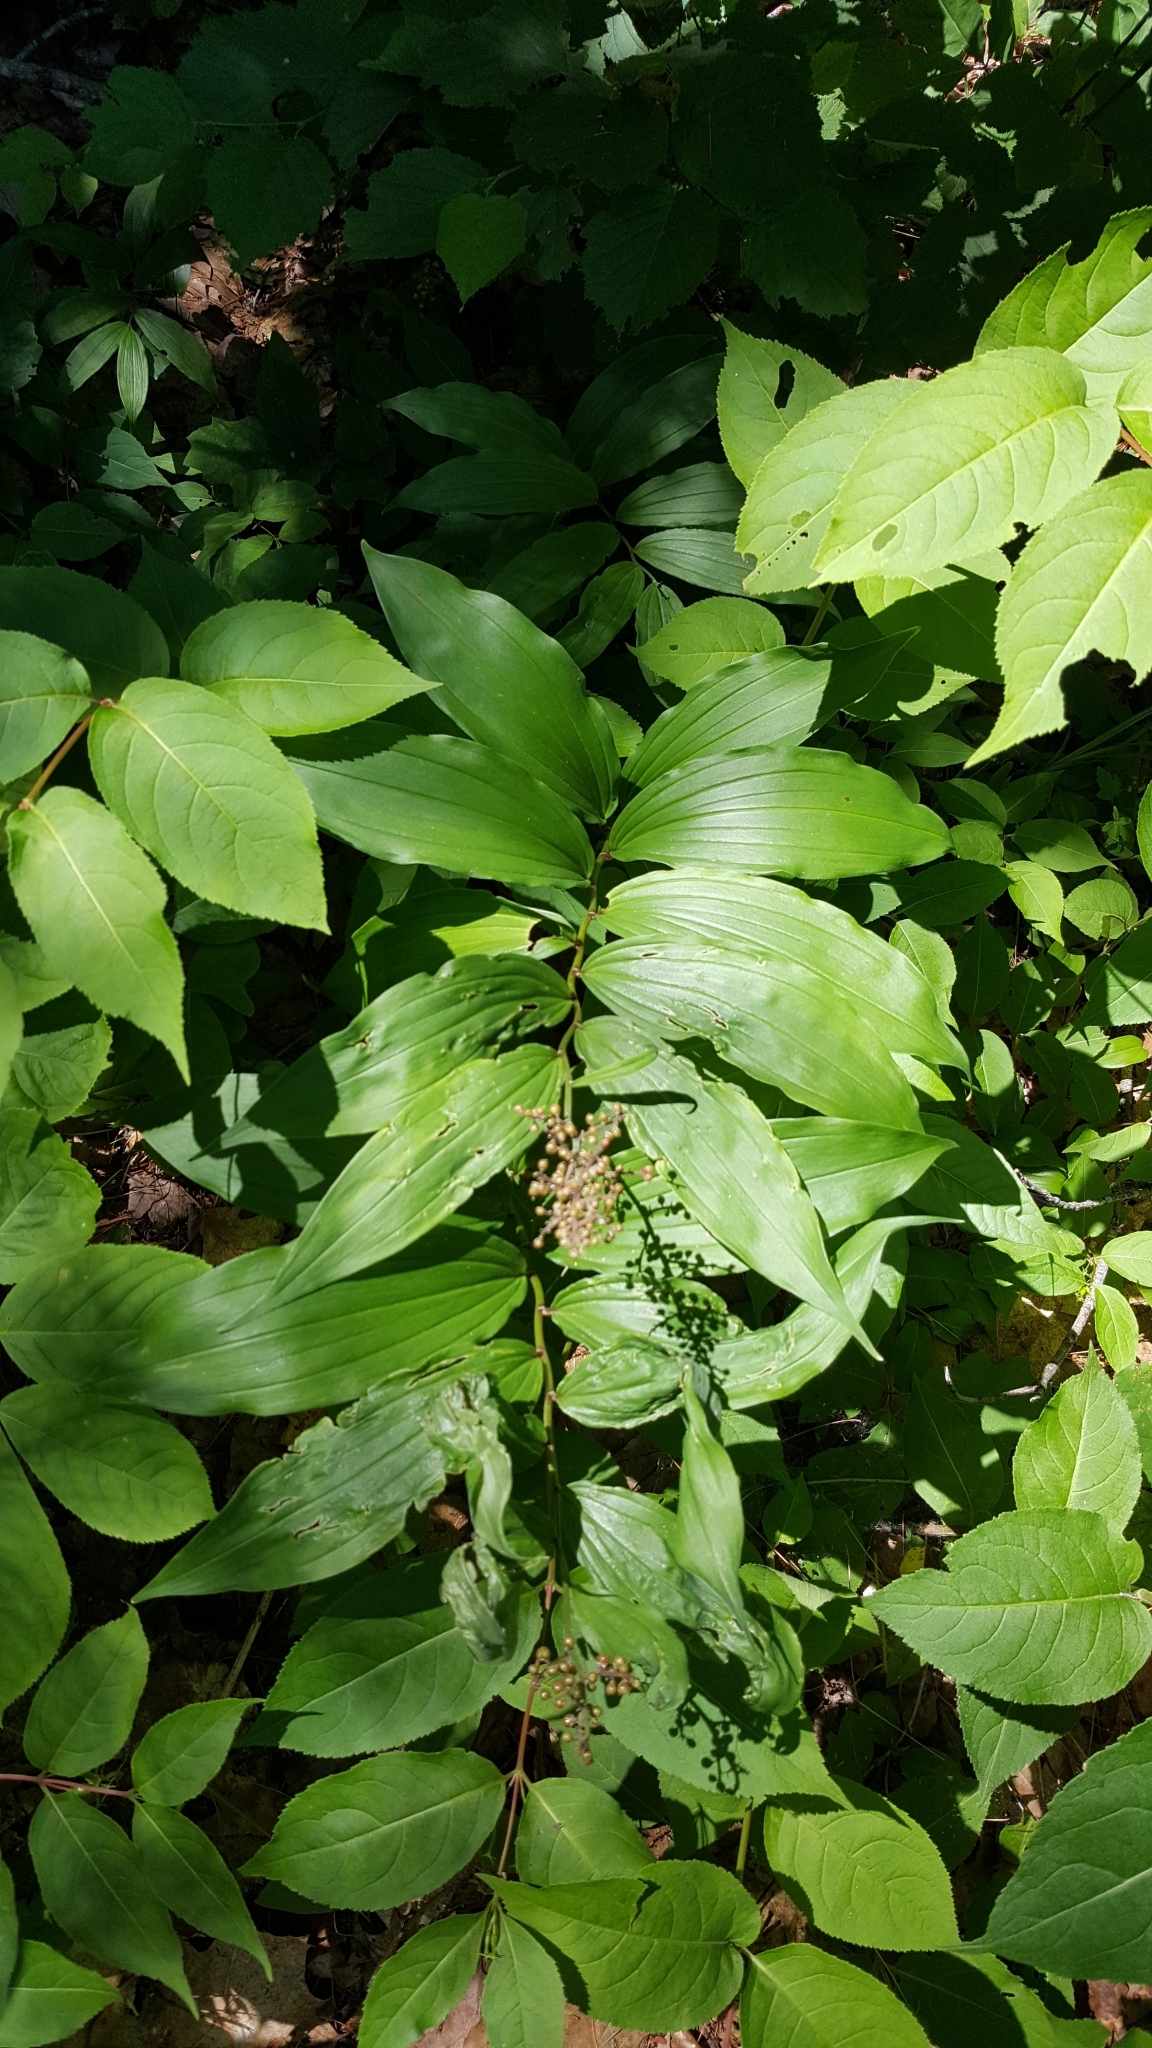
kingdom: Plantae
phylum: Tracheophyta
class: Liliopsida
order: Asparagales
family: Asparagaceae
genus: Maianthemum
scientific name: Maianthemum racemosum
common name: False spikenard
